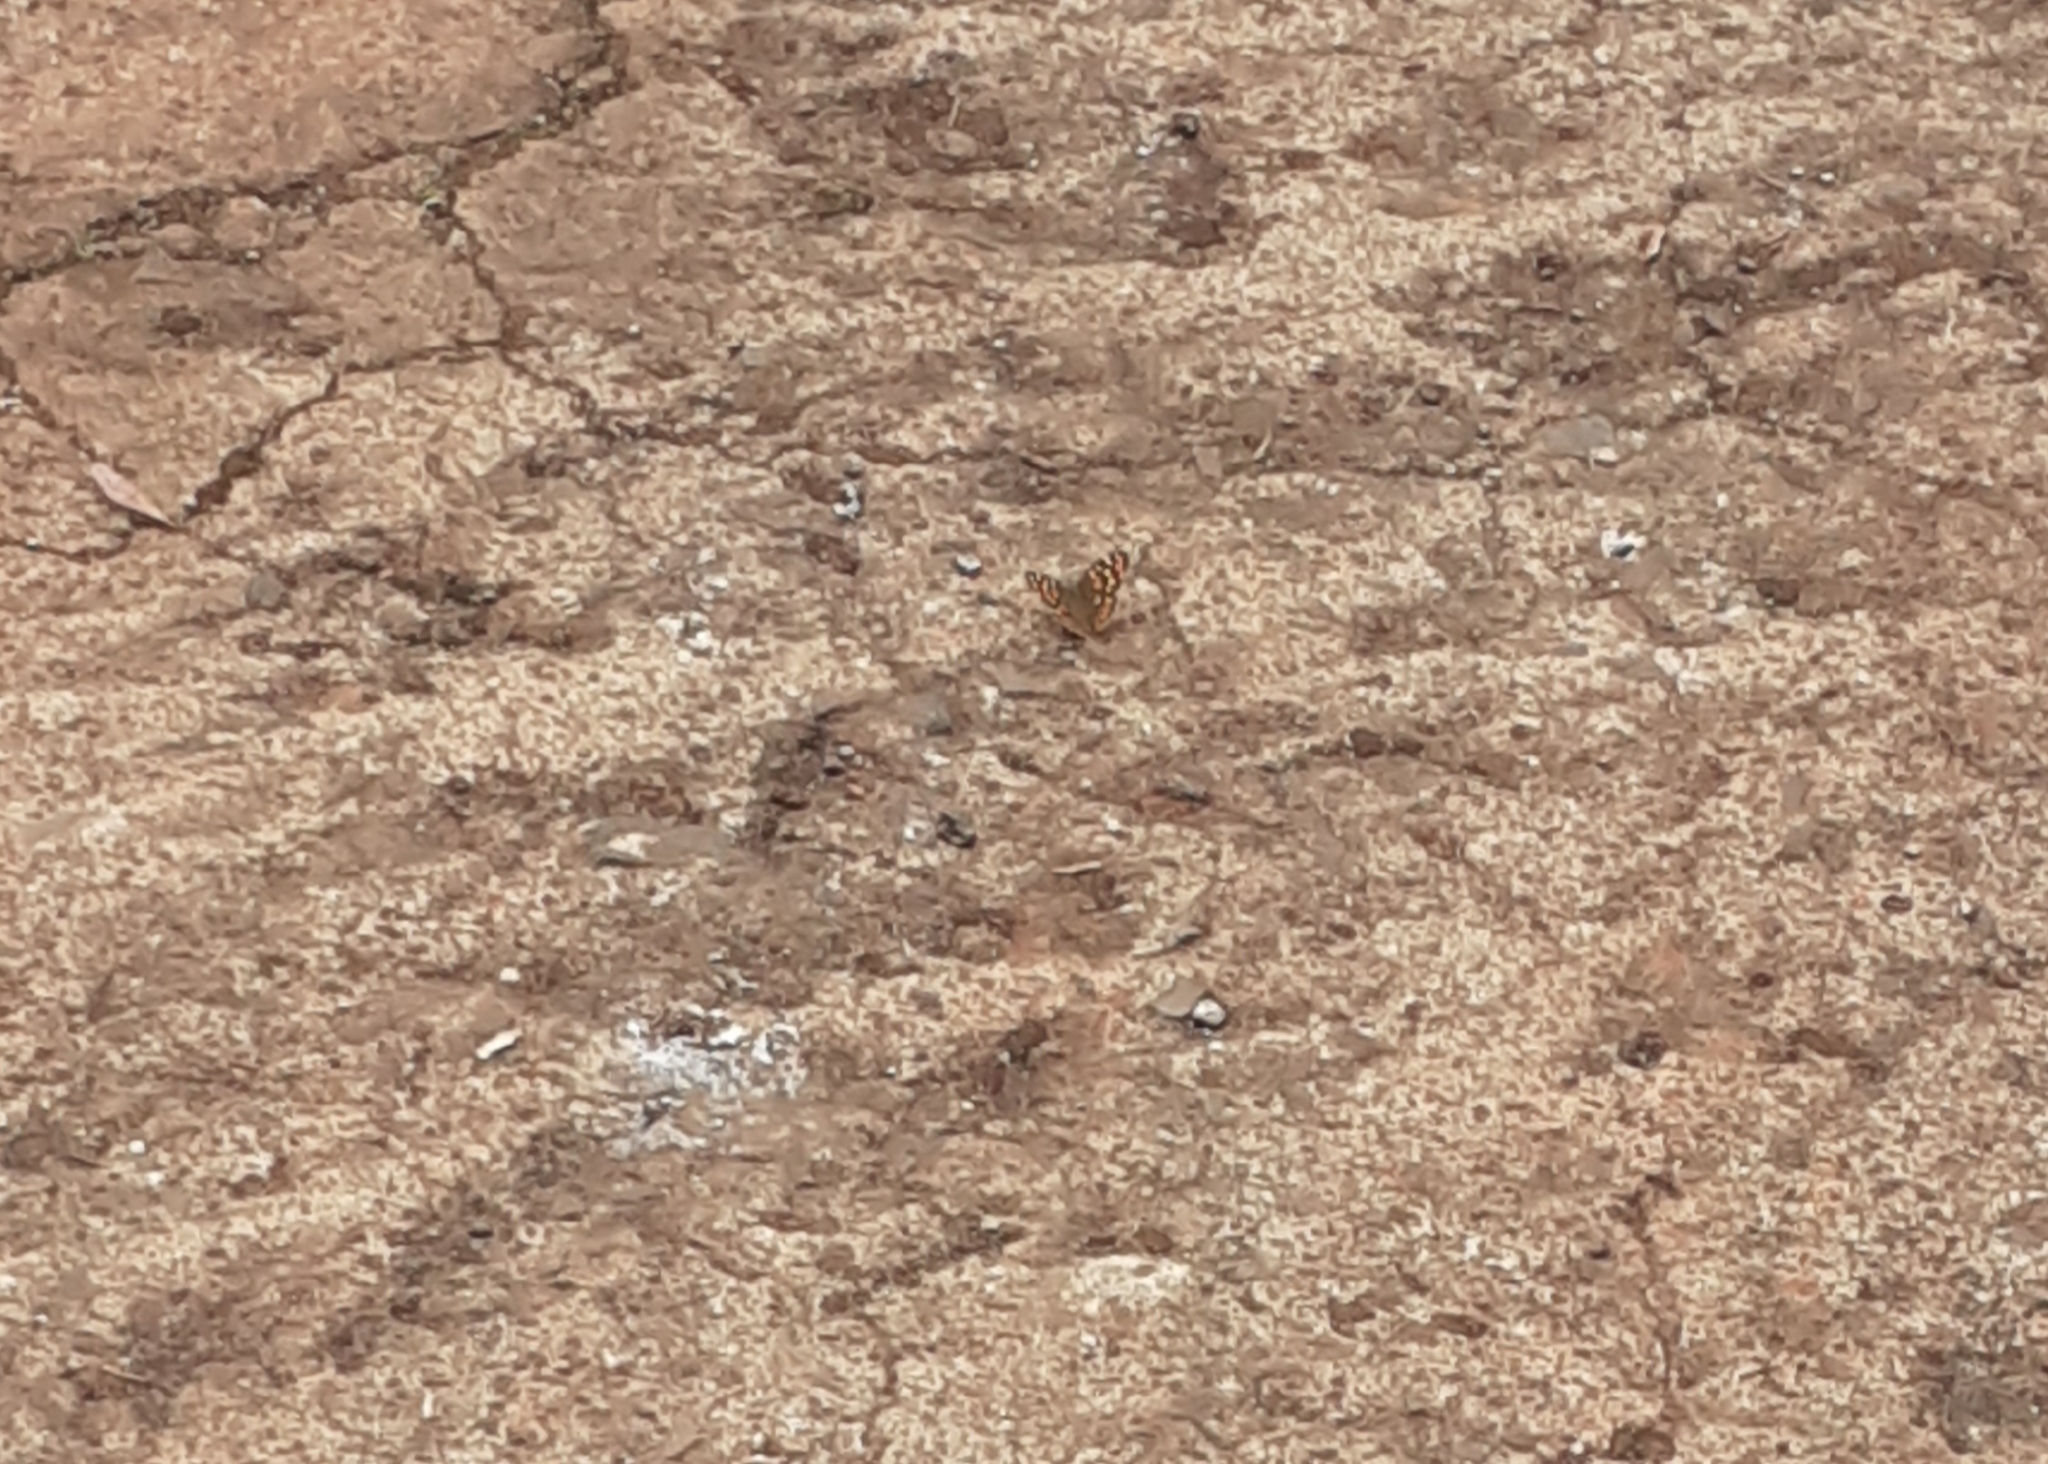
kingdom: Animalia
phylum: Arthropoda
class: Insecta
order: Lepidoptera
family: Nymphalidae
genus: Pararge
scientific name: Pararge aegeria
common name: Speckled wood
